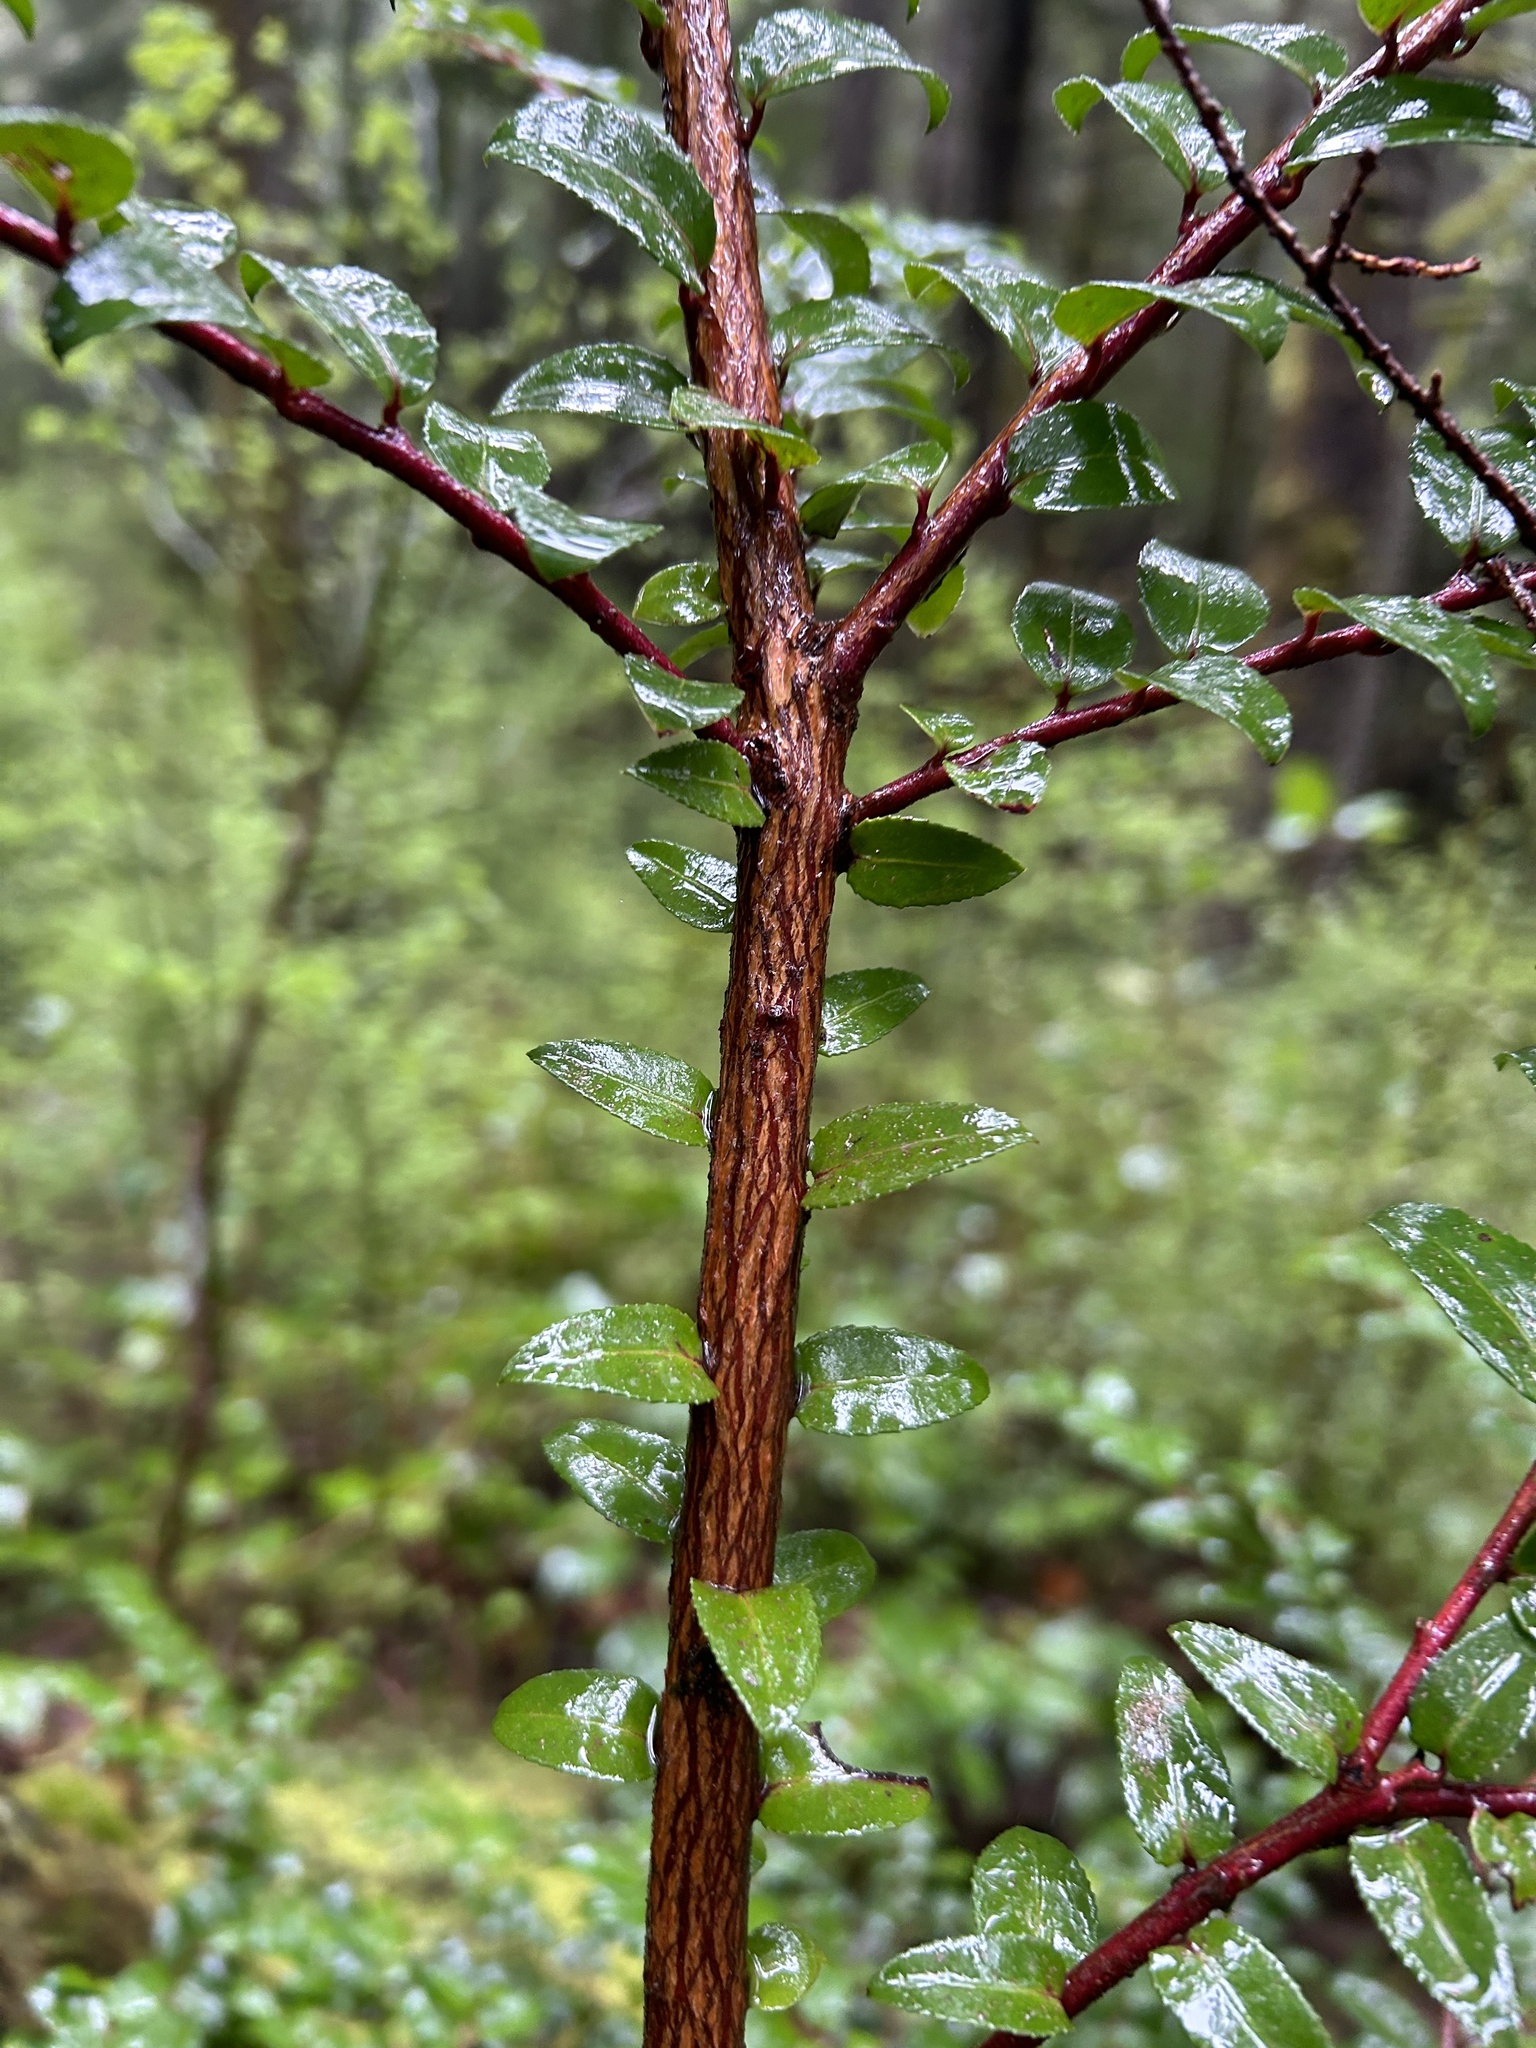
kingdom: Plantae
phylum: Tracheophyta
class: Magnoliopsida
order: Ericales
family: Ericaceae
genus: Vaccinium
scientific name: Vaccinium ovatum
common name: California-huckleberry
